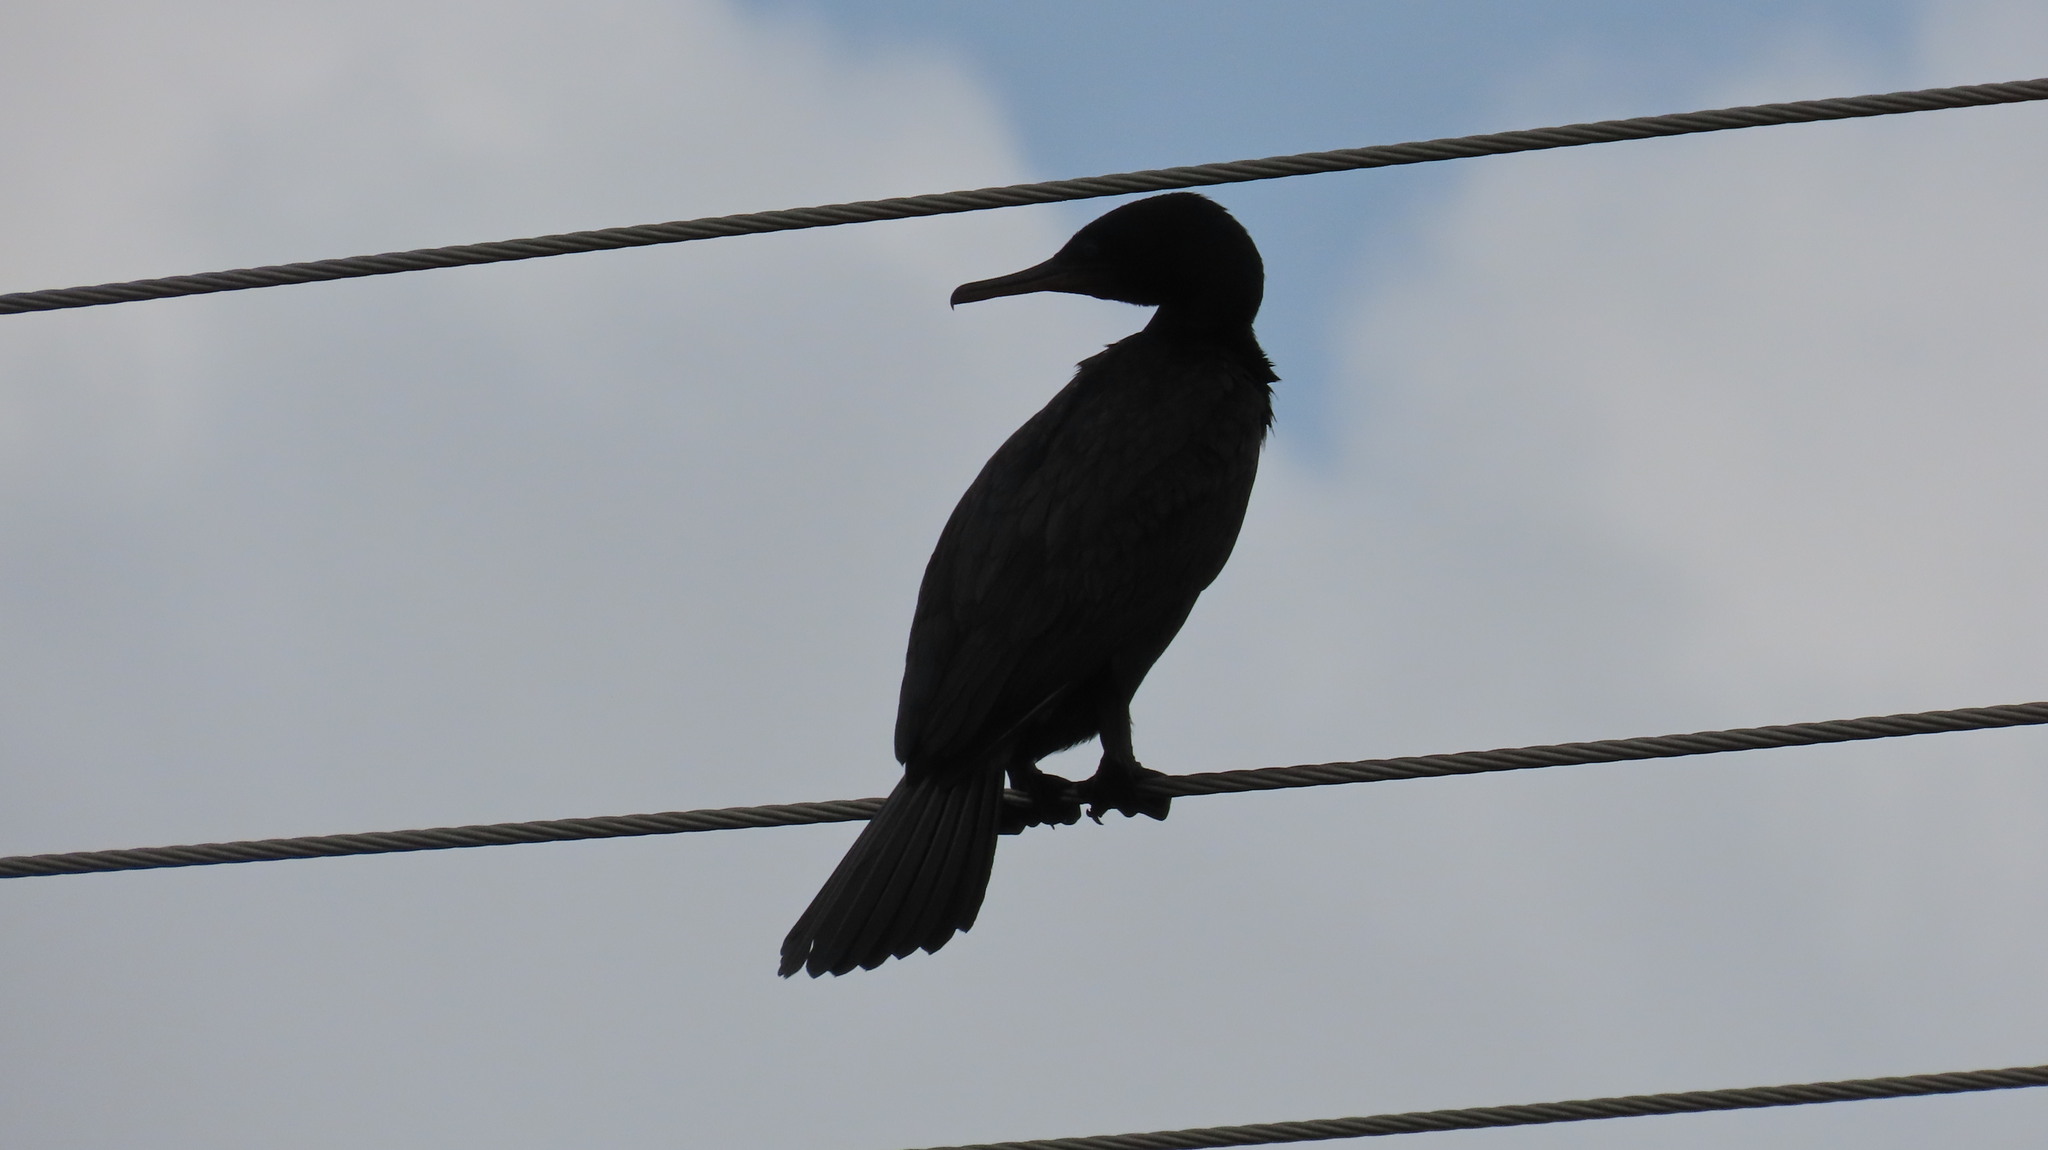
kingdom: Animalia
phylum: Chordata
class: Aves
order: Suliformes
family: Phalacrocoracidae
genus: Phalacrocorax
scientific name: Phalacrocorax fuscicollis
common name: Indian cormorant
